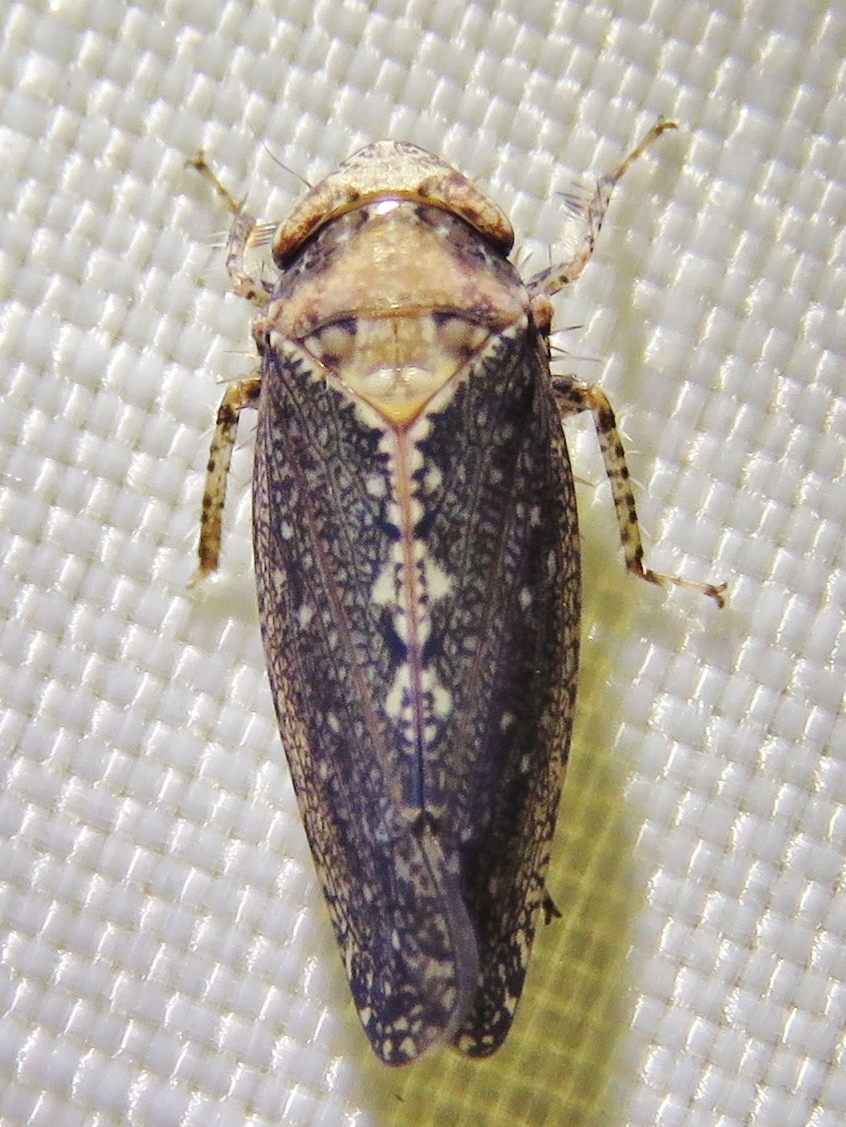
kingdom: Animalia
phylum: Arthropoda
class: Insecta
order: Hemiptera
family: Cicadellidae
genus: Excultanus
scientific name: Excultanus excultus
